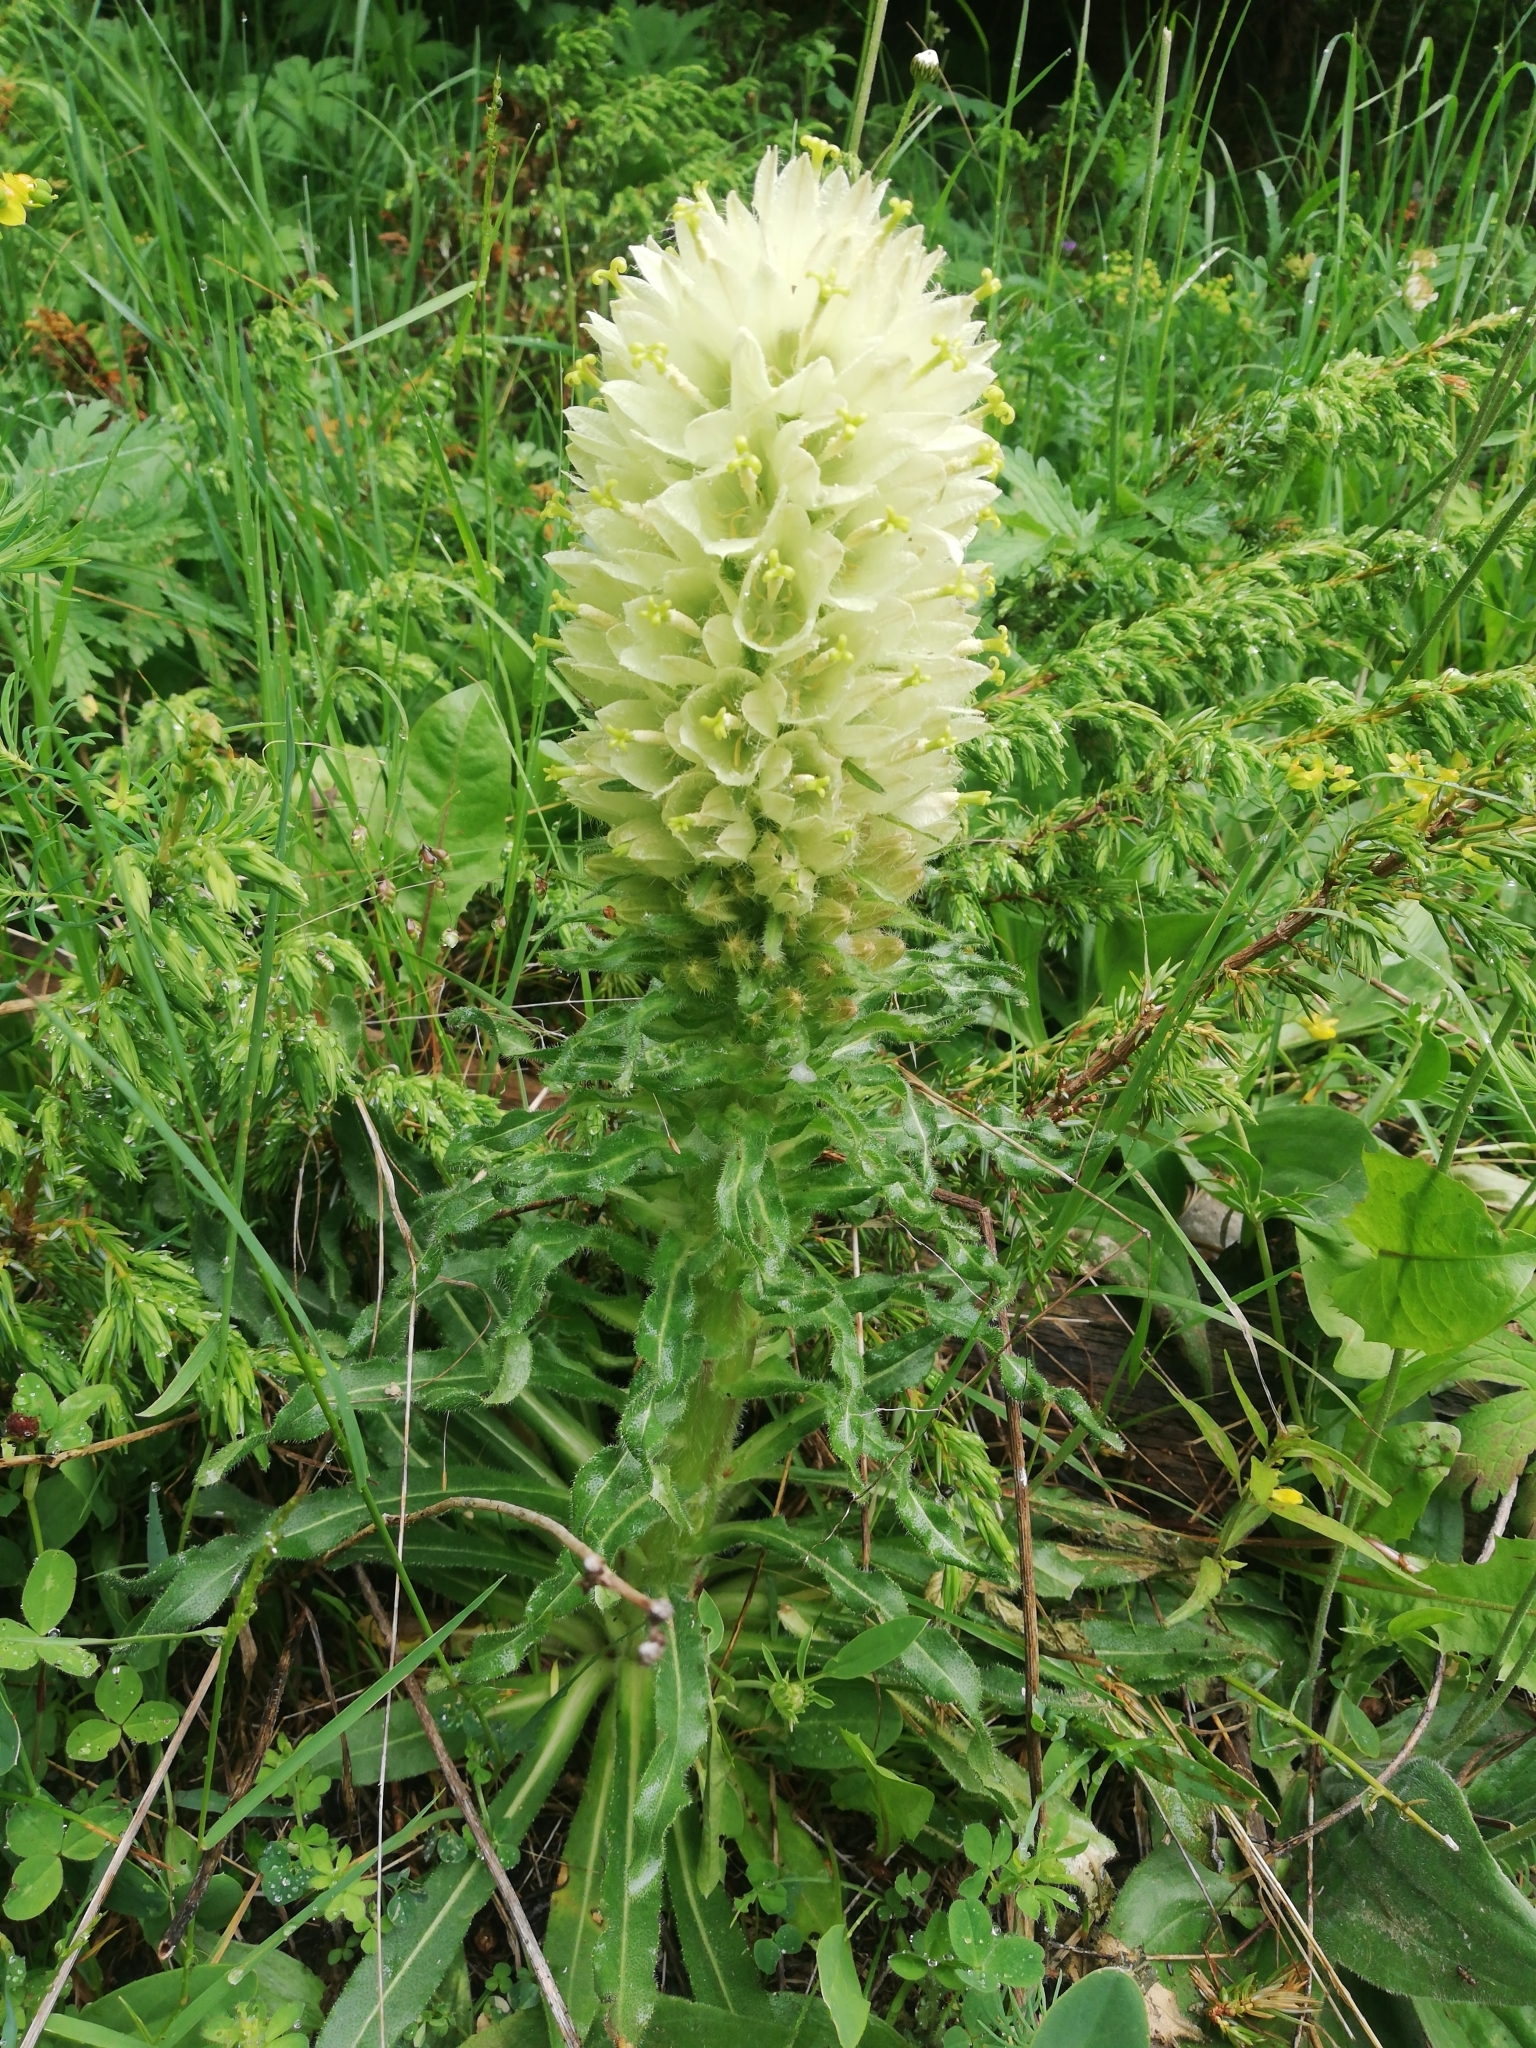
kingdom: Plantae
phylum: Tracheophyta
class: Magnoliopsida
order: Asterales
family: Campanulaceae
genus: Campanula
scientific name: Campanula thyrsoides
